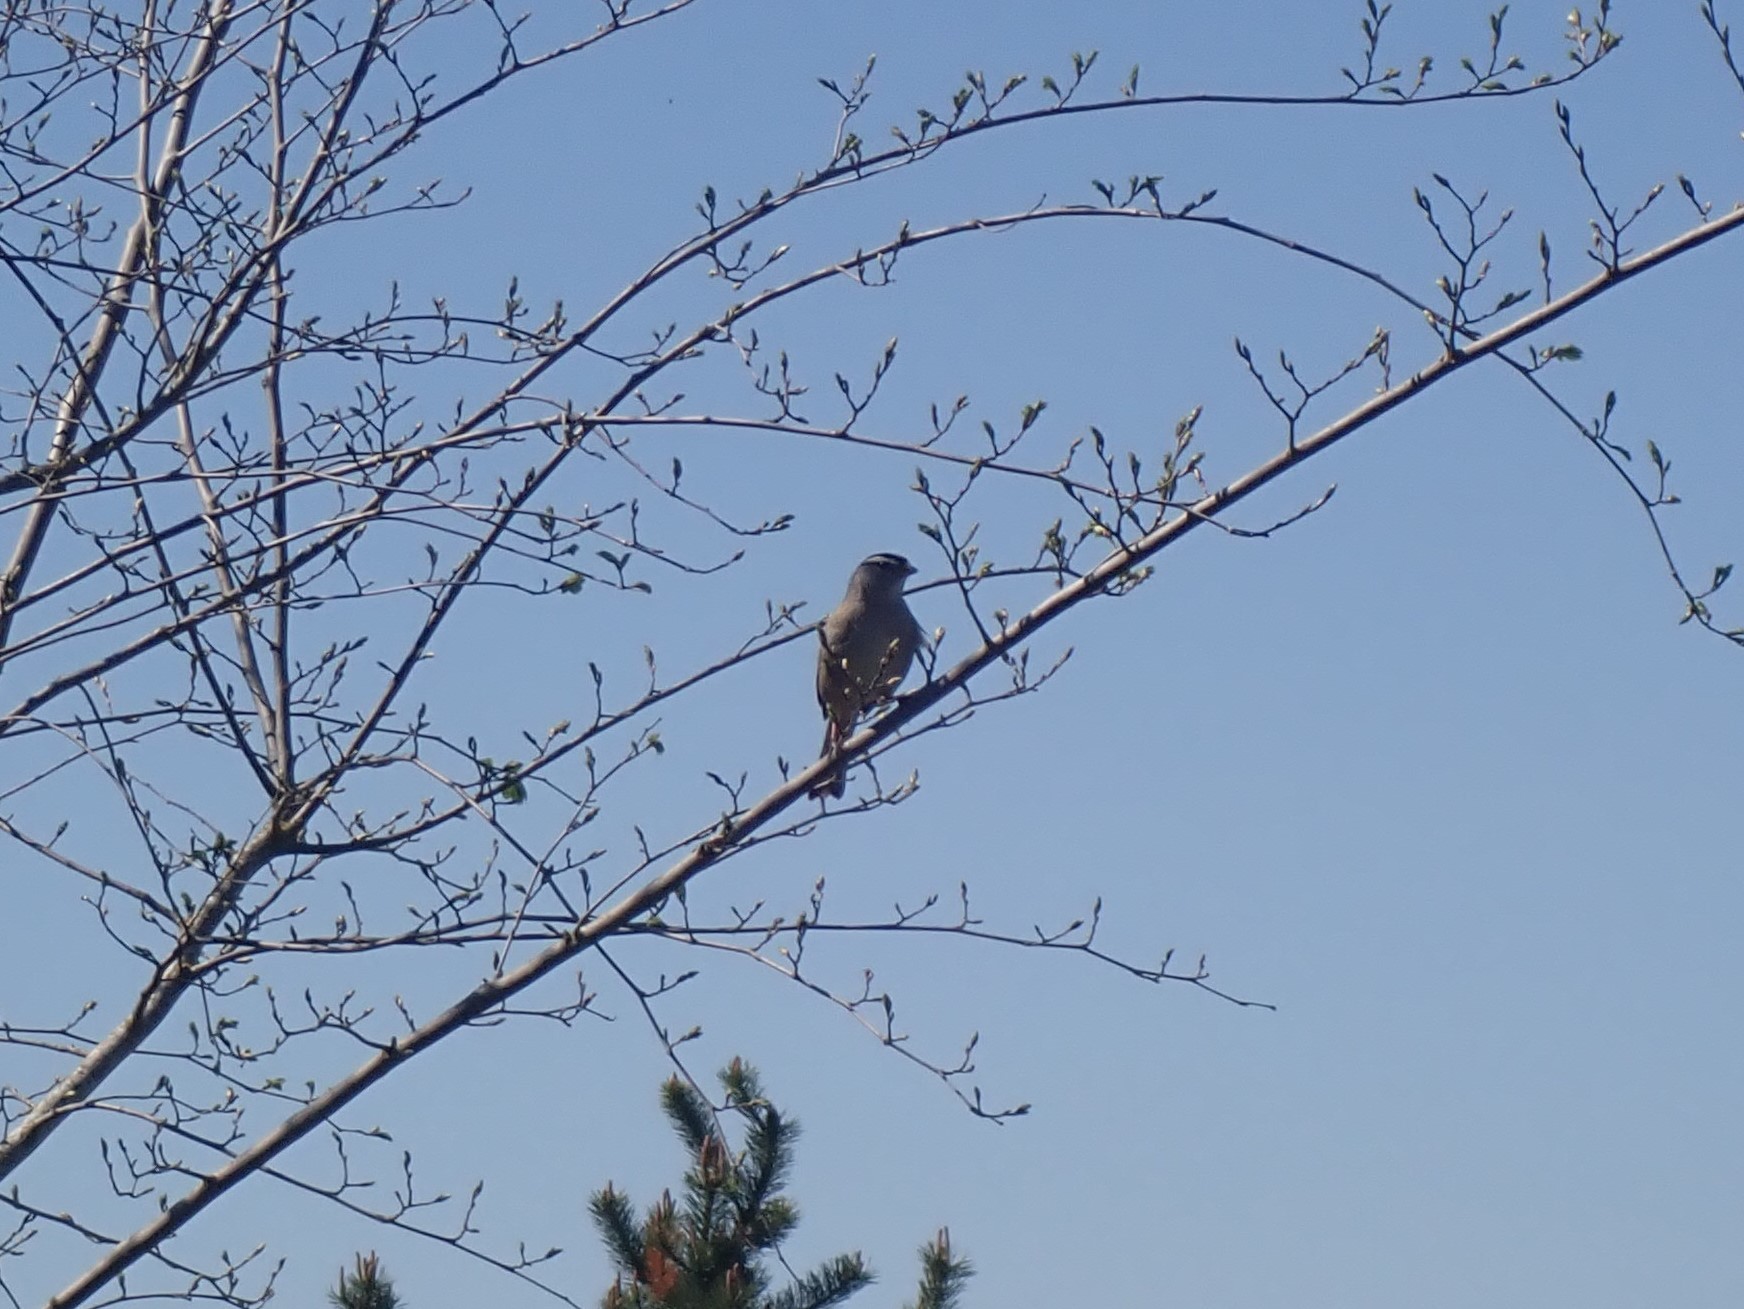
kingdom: Animalia
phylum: Chordata
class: Aves
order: Passeriformes
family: Passerellidae
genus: Zonotrichia
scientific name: Zonotrichia leucophrys
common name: White-crowned sparrow
